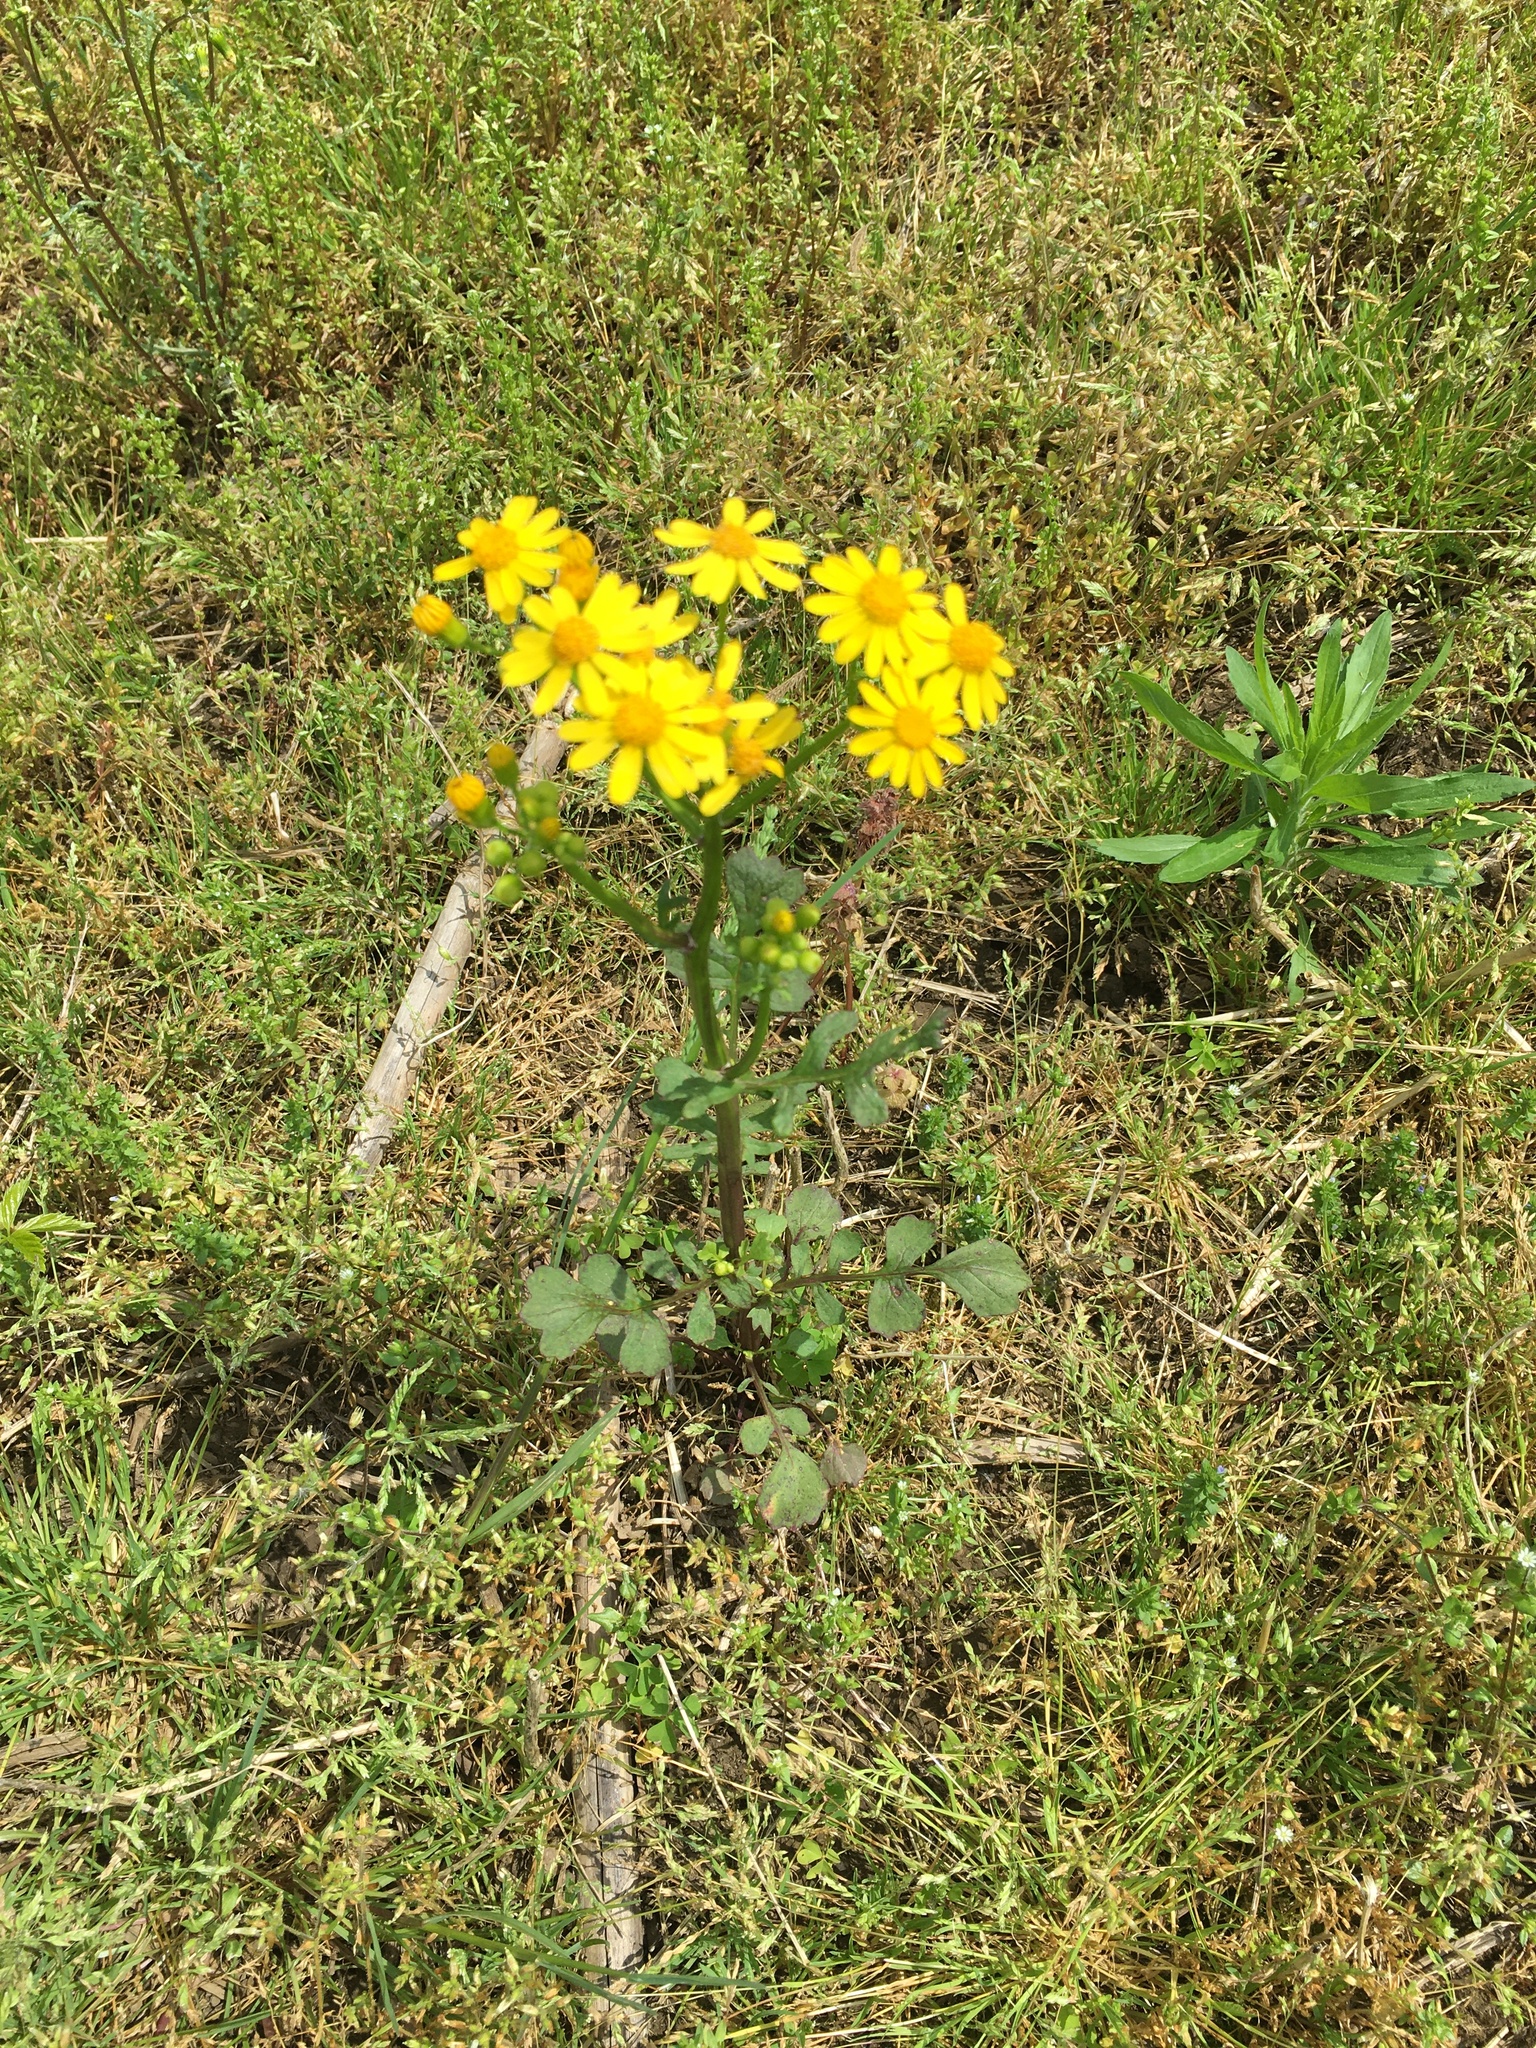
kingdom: Plantae
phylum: Tracheophyta
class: Magnoliopsida
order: Asterales
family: Asteraceae
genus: Packera
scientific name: Packera glabella
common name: Butterweed
